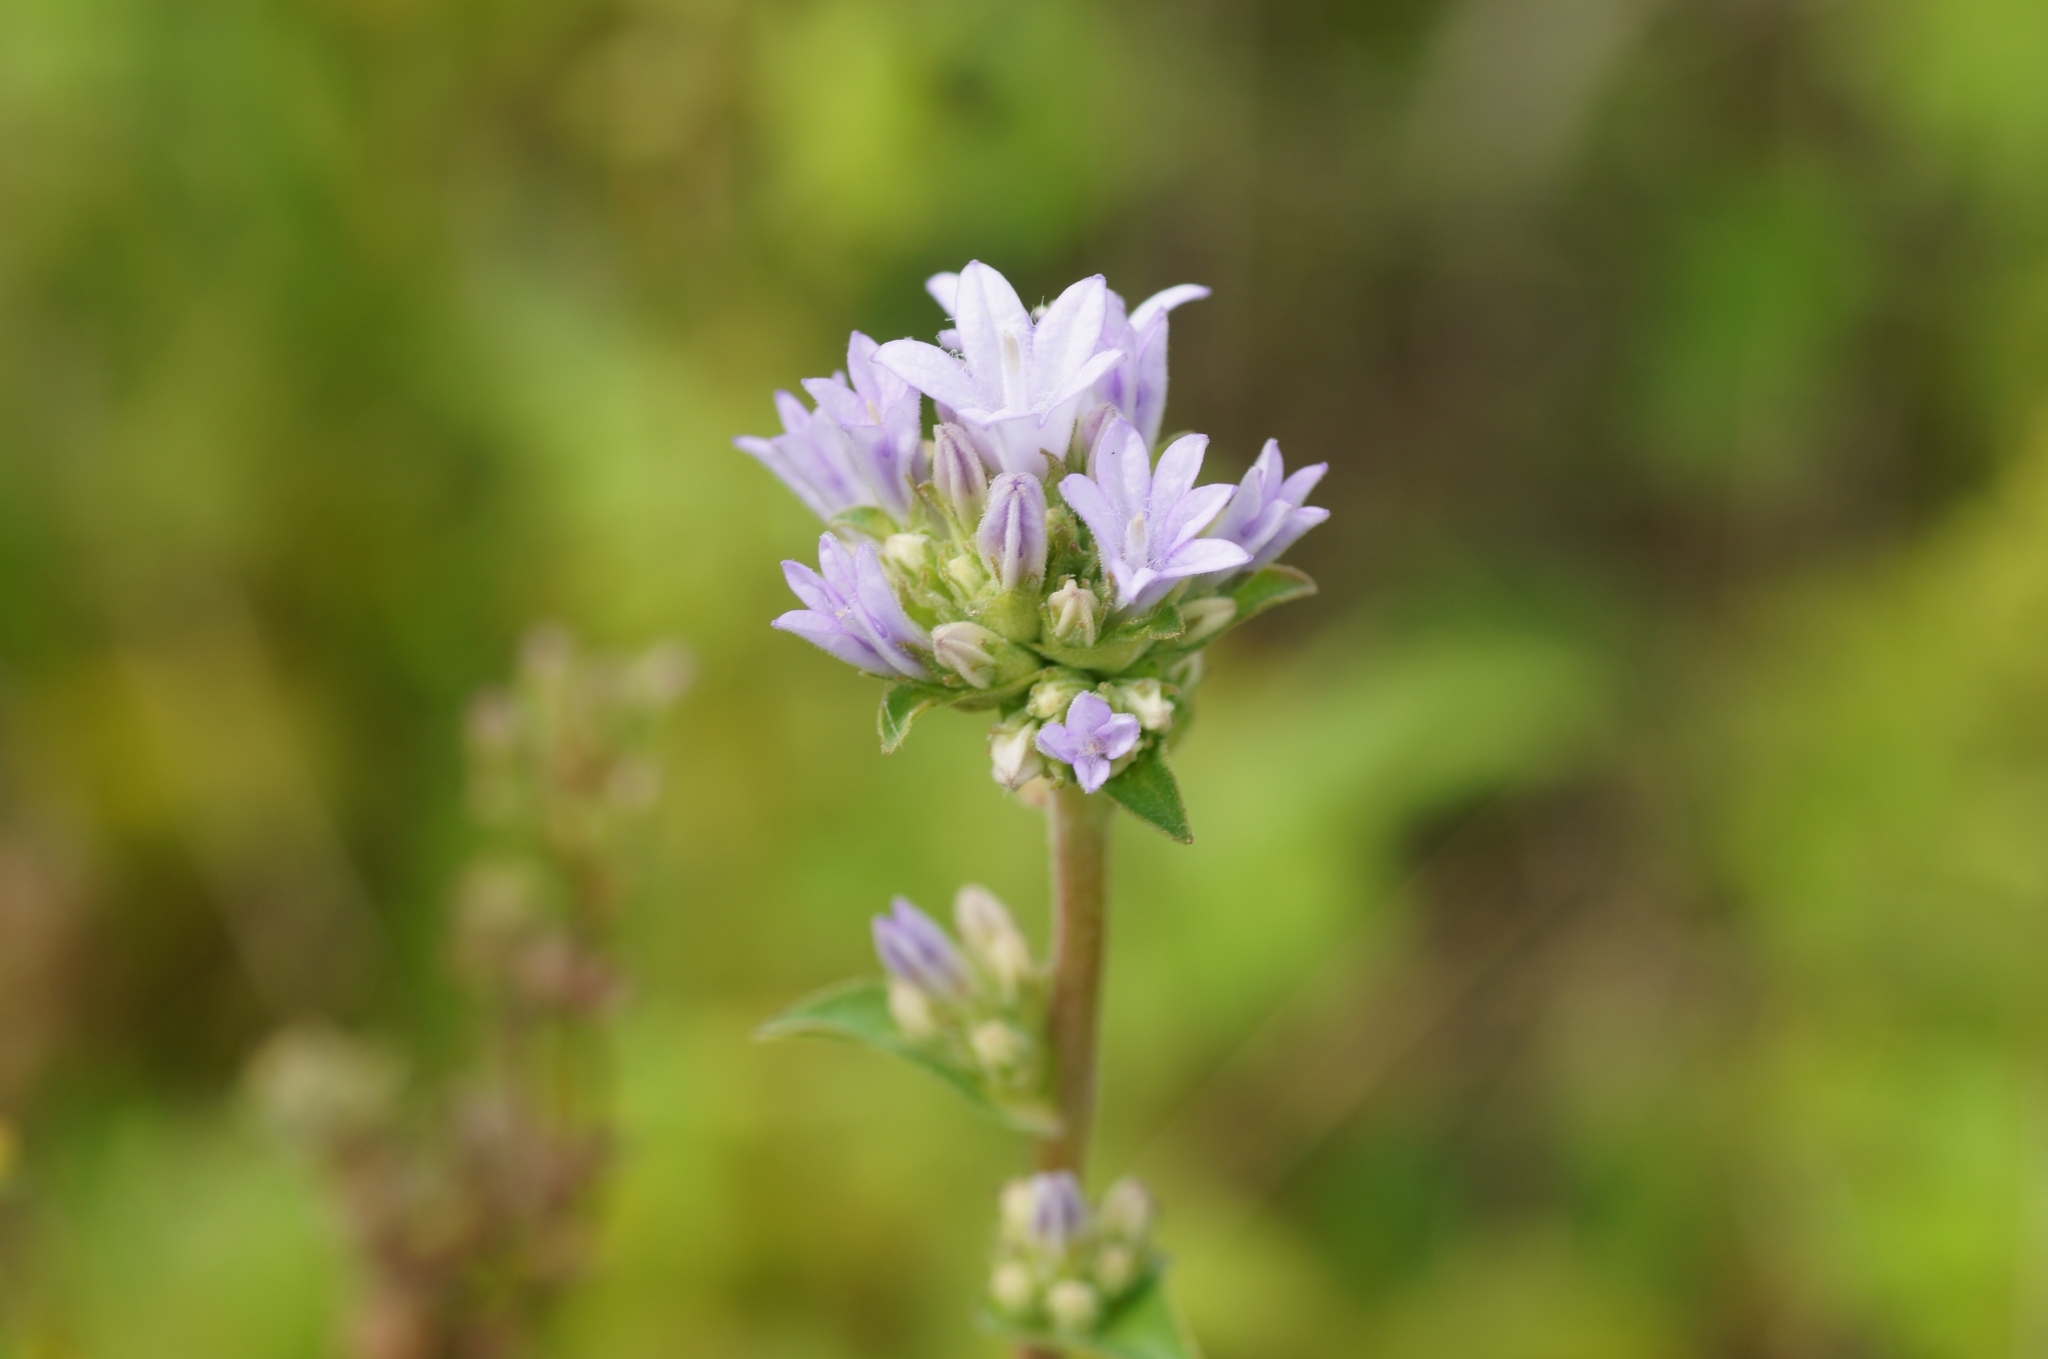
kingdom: Plantae
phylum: Tracheophyta
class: Magnoliopsida
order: Asterales
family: Campanulaceae
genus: Campanula
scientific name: Campanula glomerata
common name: Clustered bellflower
